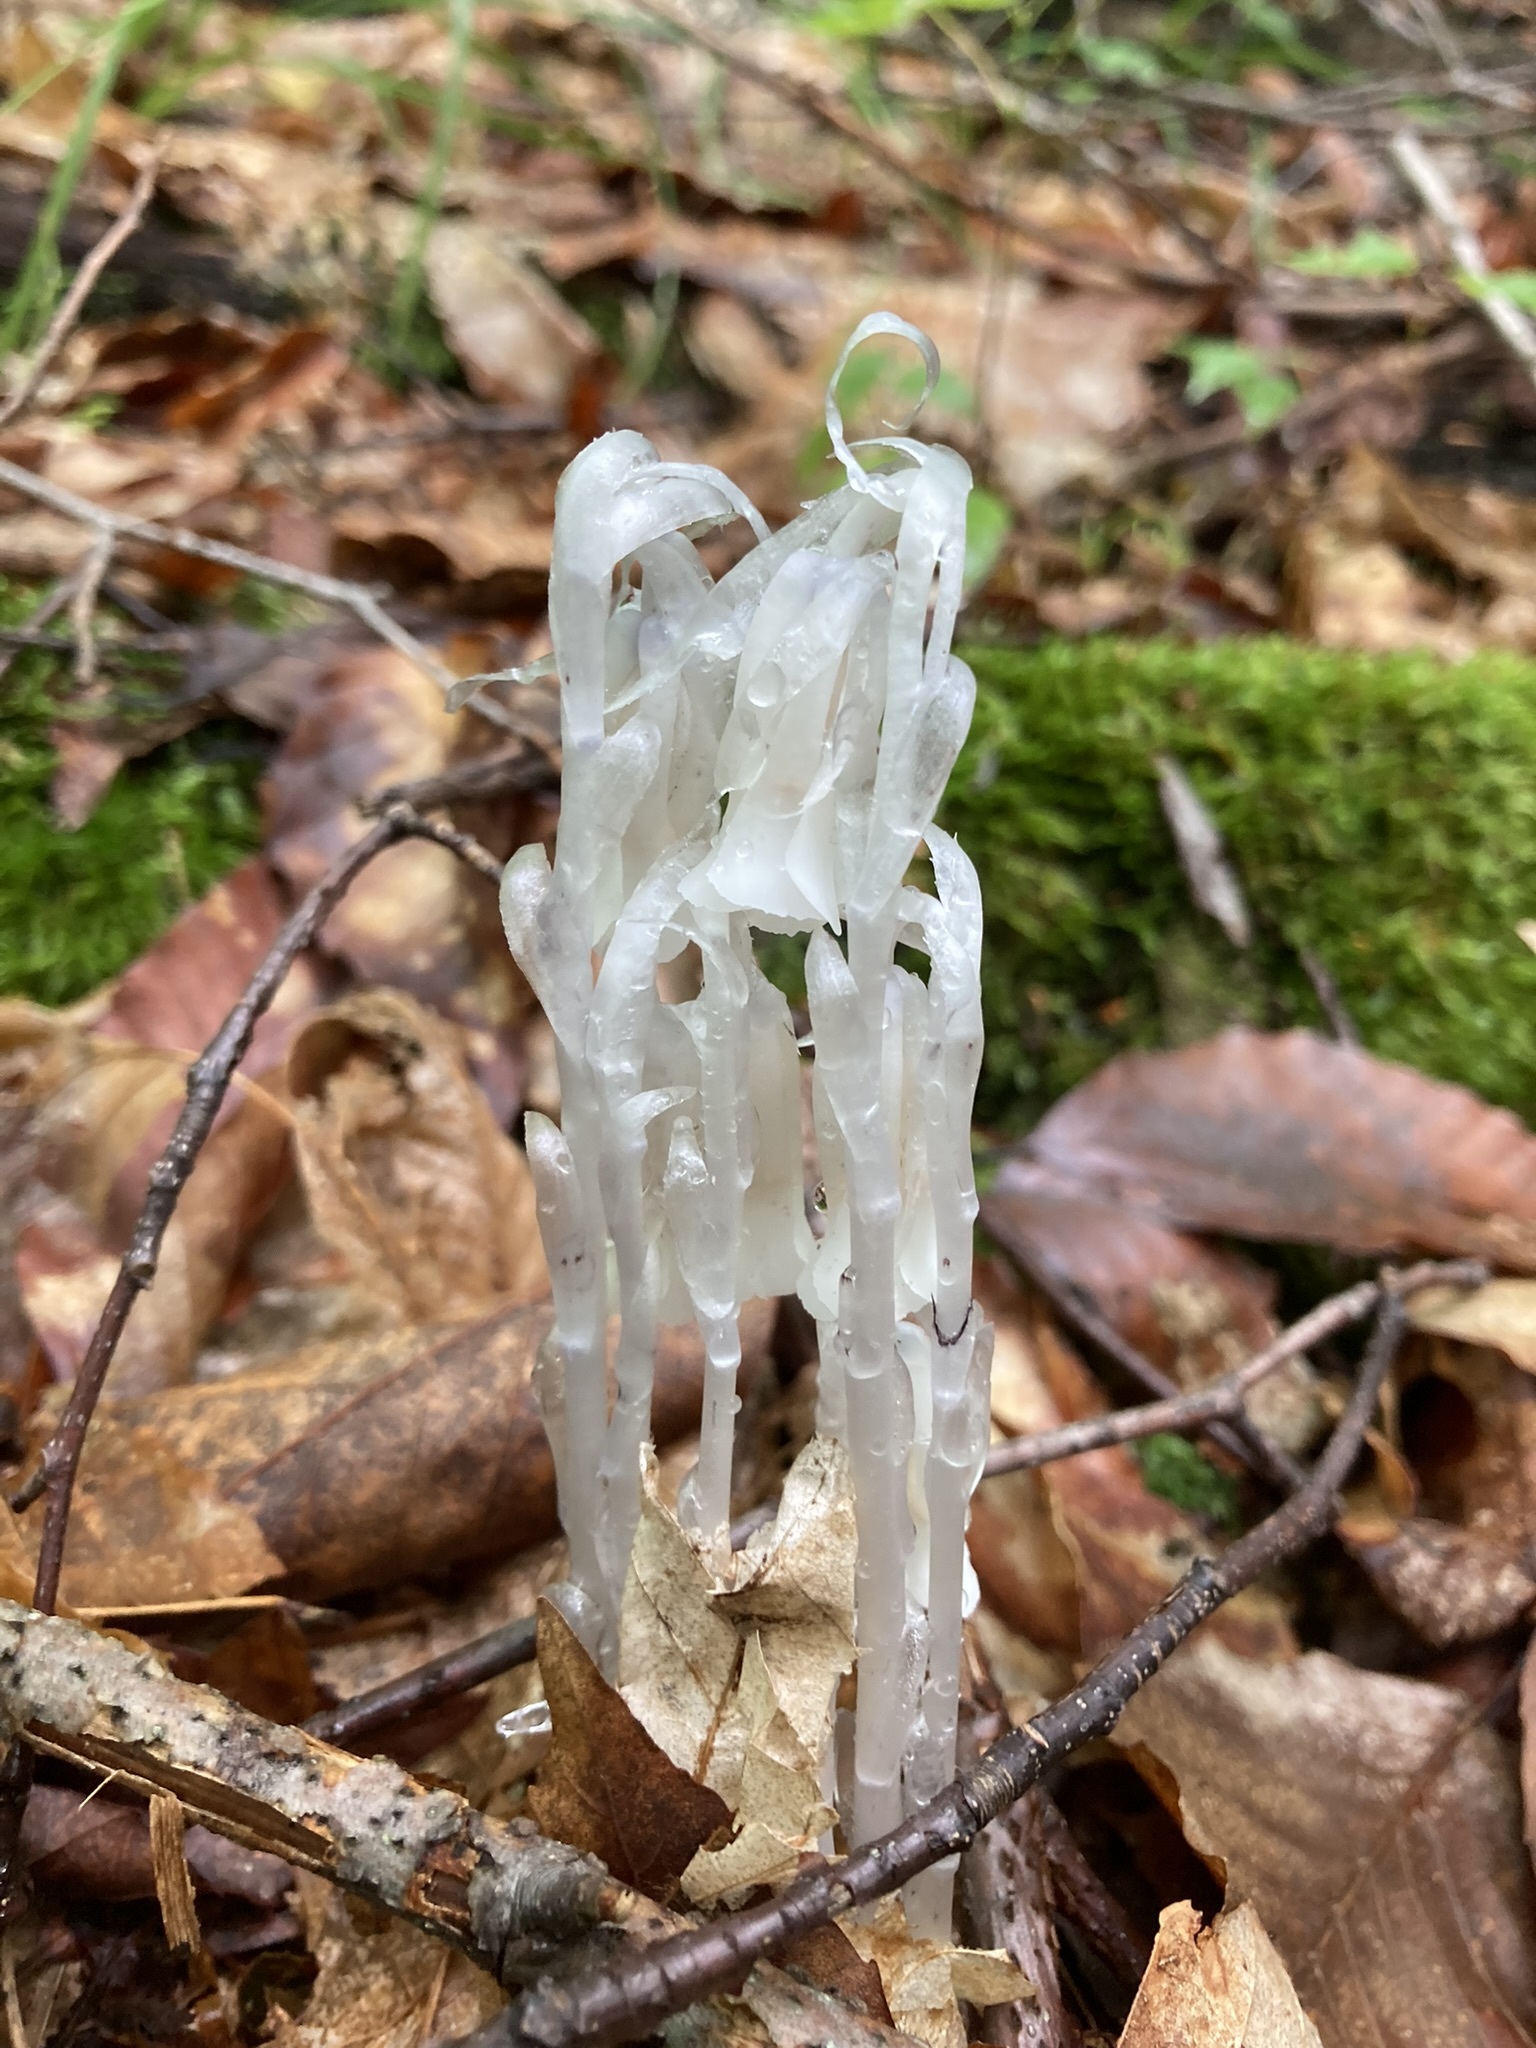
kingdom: Plantae
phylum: Tracheophyta
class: Magnoliopsida
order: Ericales
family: Ericaceae
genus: Monotropa
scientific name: Monotropa uniflora
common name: Convulsion root
